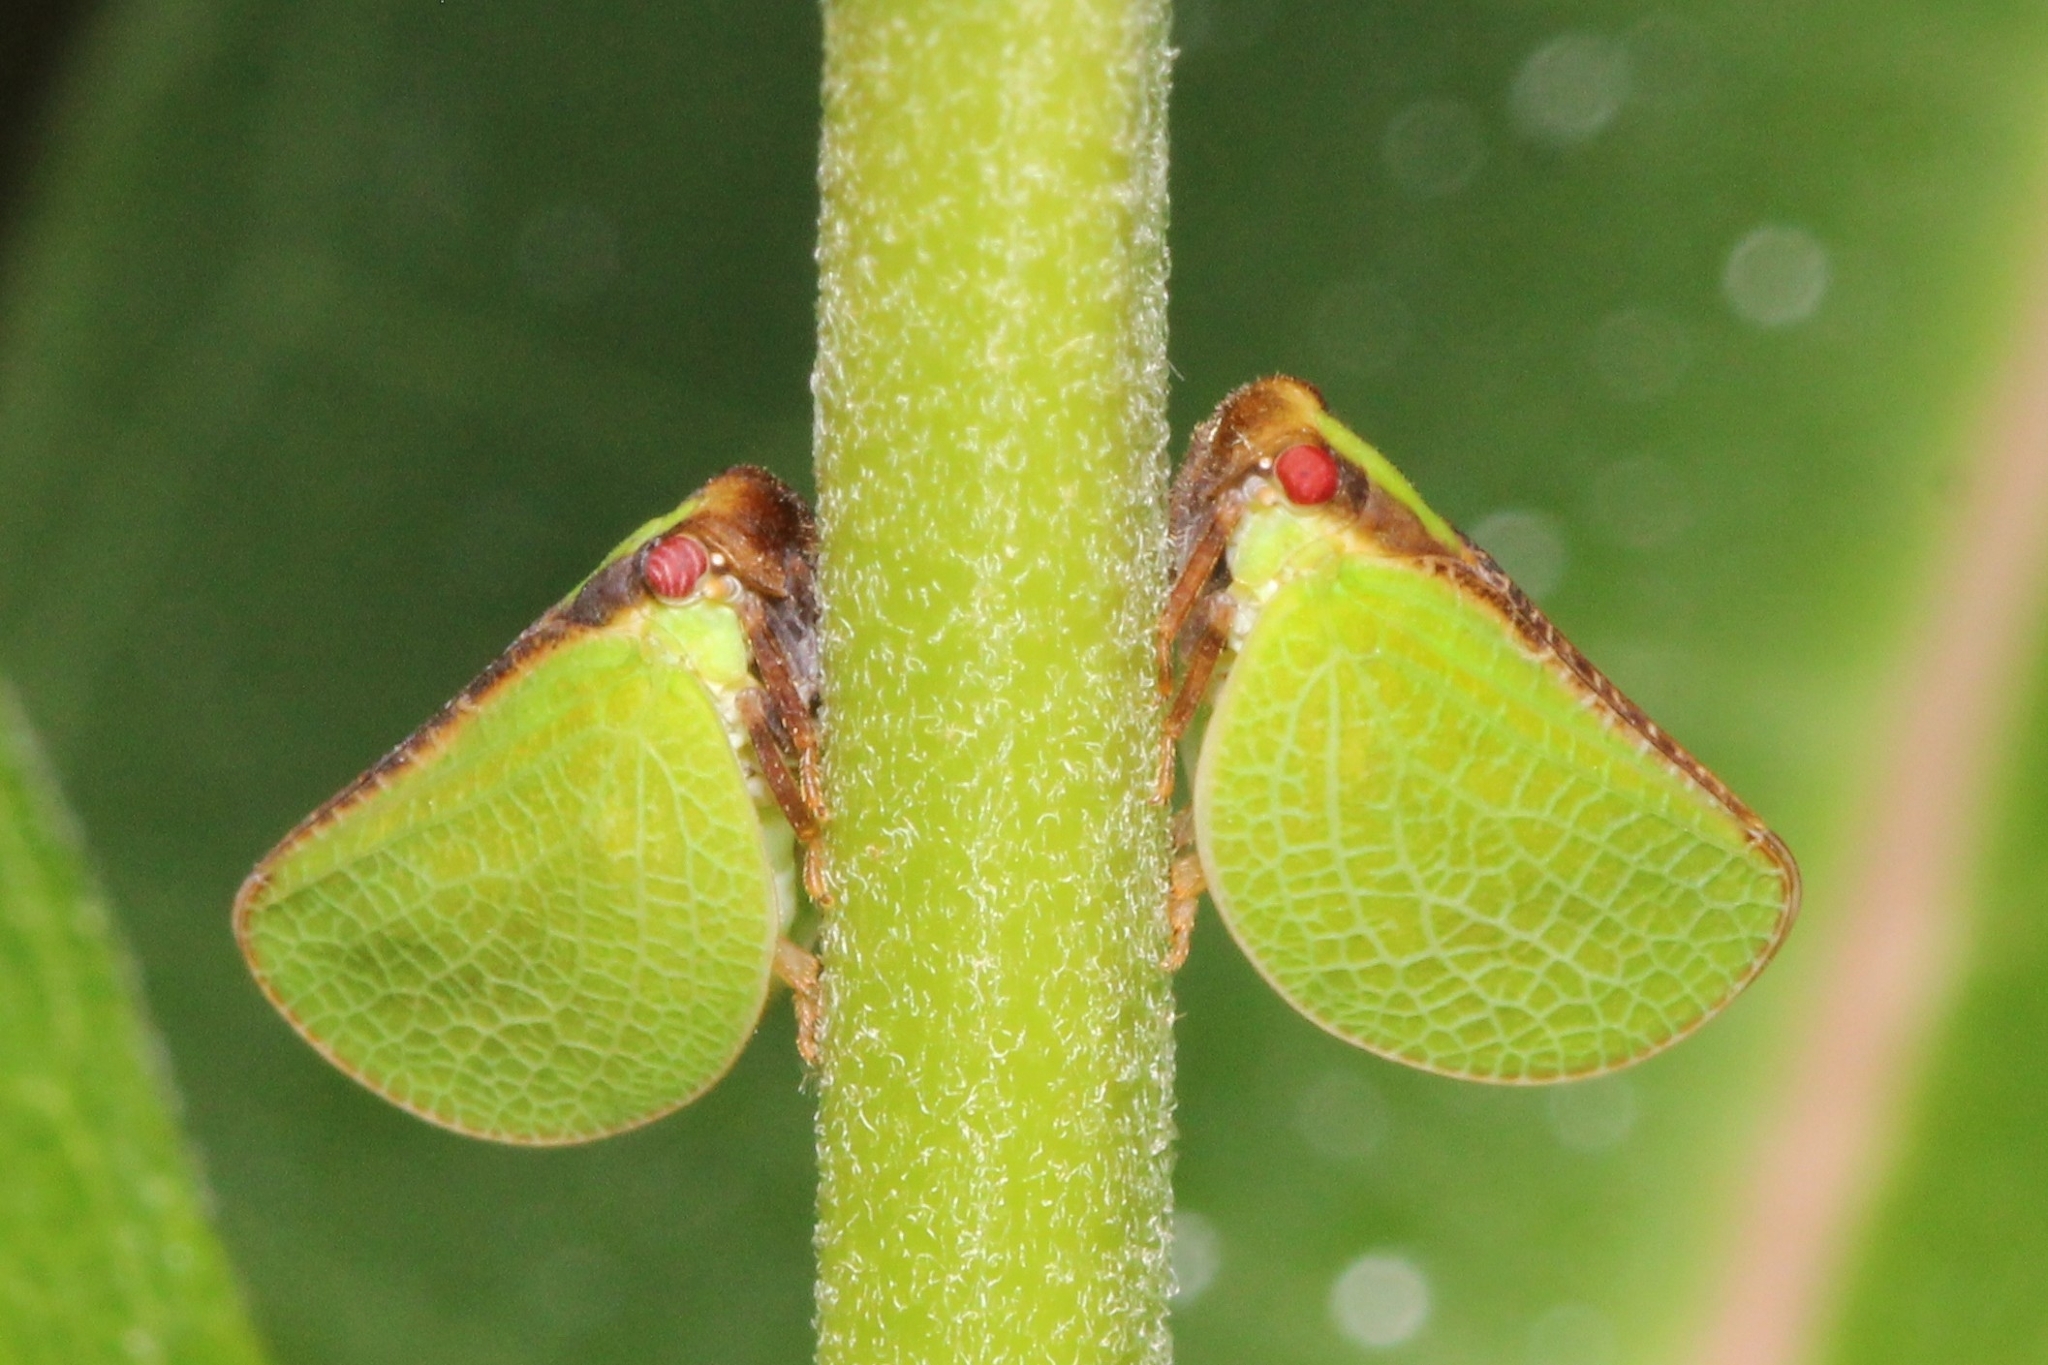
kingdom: Animalia
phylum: Arthropoda
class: Insecta
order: Hemiptera
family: Acanaloniidae
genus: Acanalonia
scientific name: Acanalonia bivittata
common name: Two-striped planthopper
